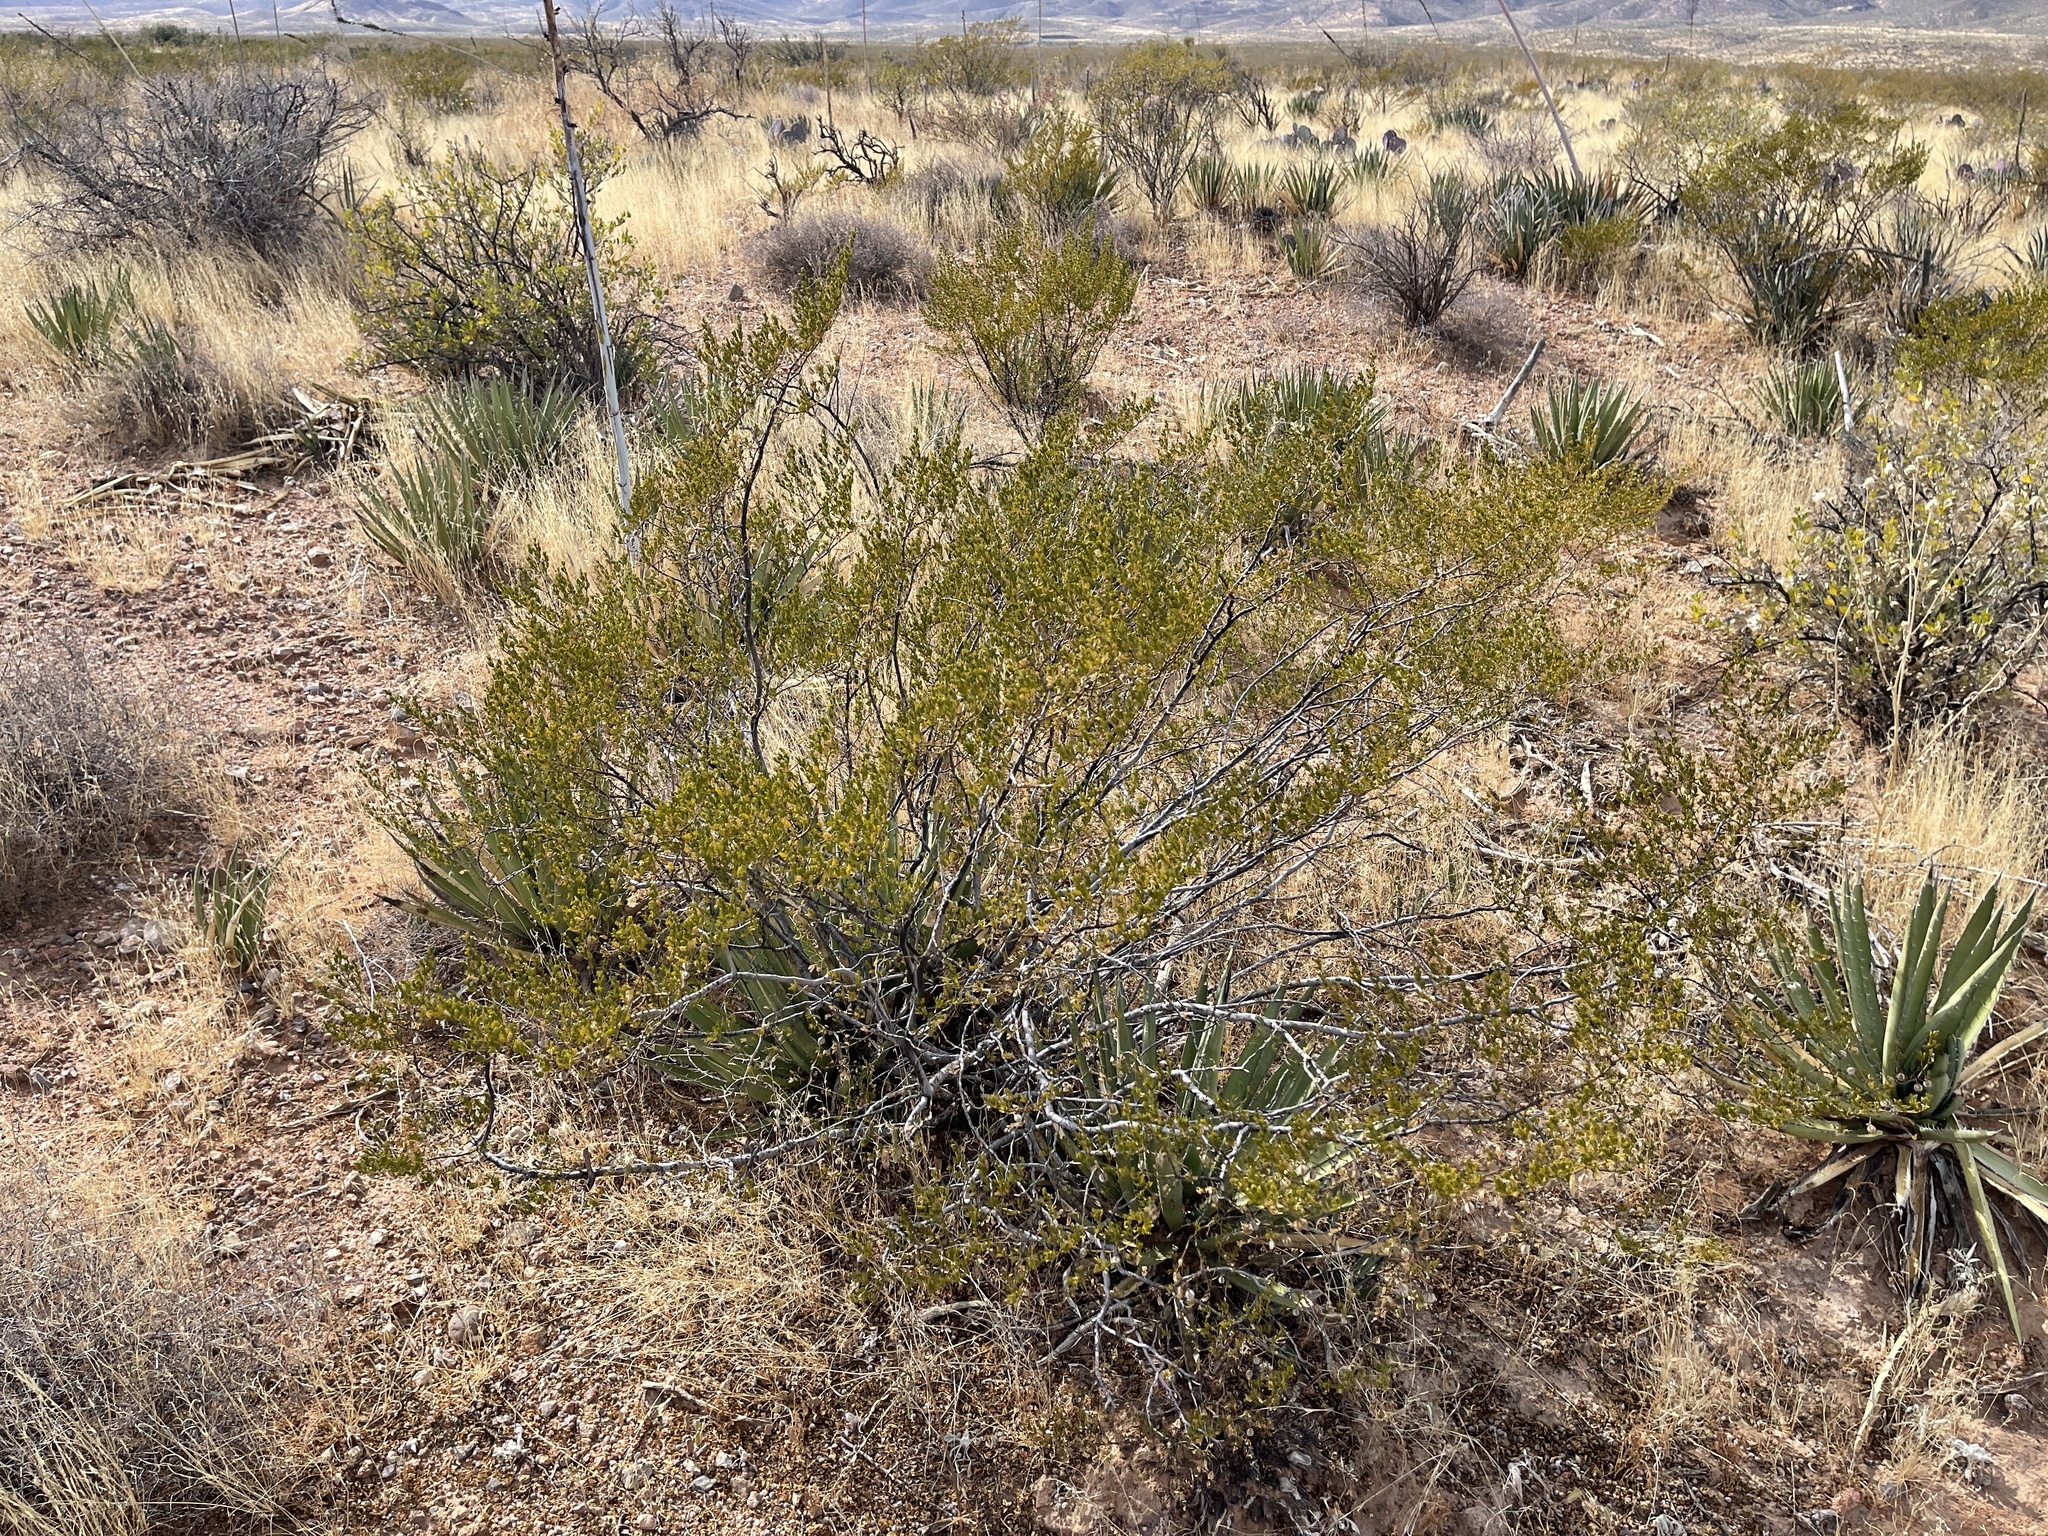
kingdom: Plantae
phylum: Tracheophyta
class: Magnoliopsida
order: Zygophyllales
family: Zygophyllaceae
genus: Larrea
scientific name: Larrea tridentata
